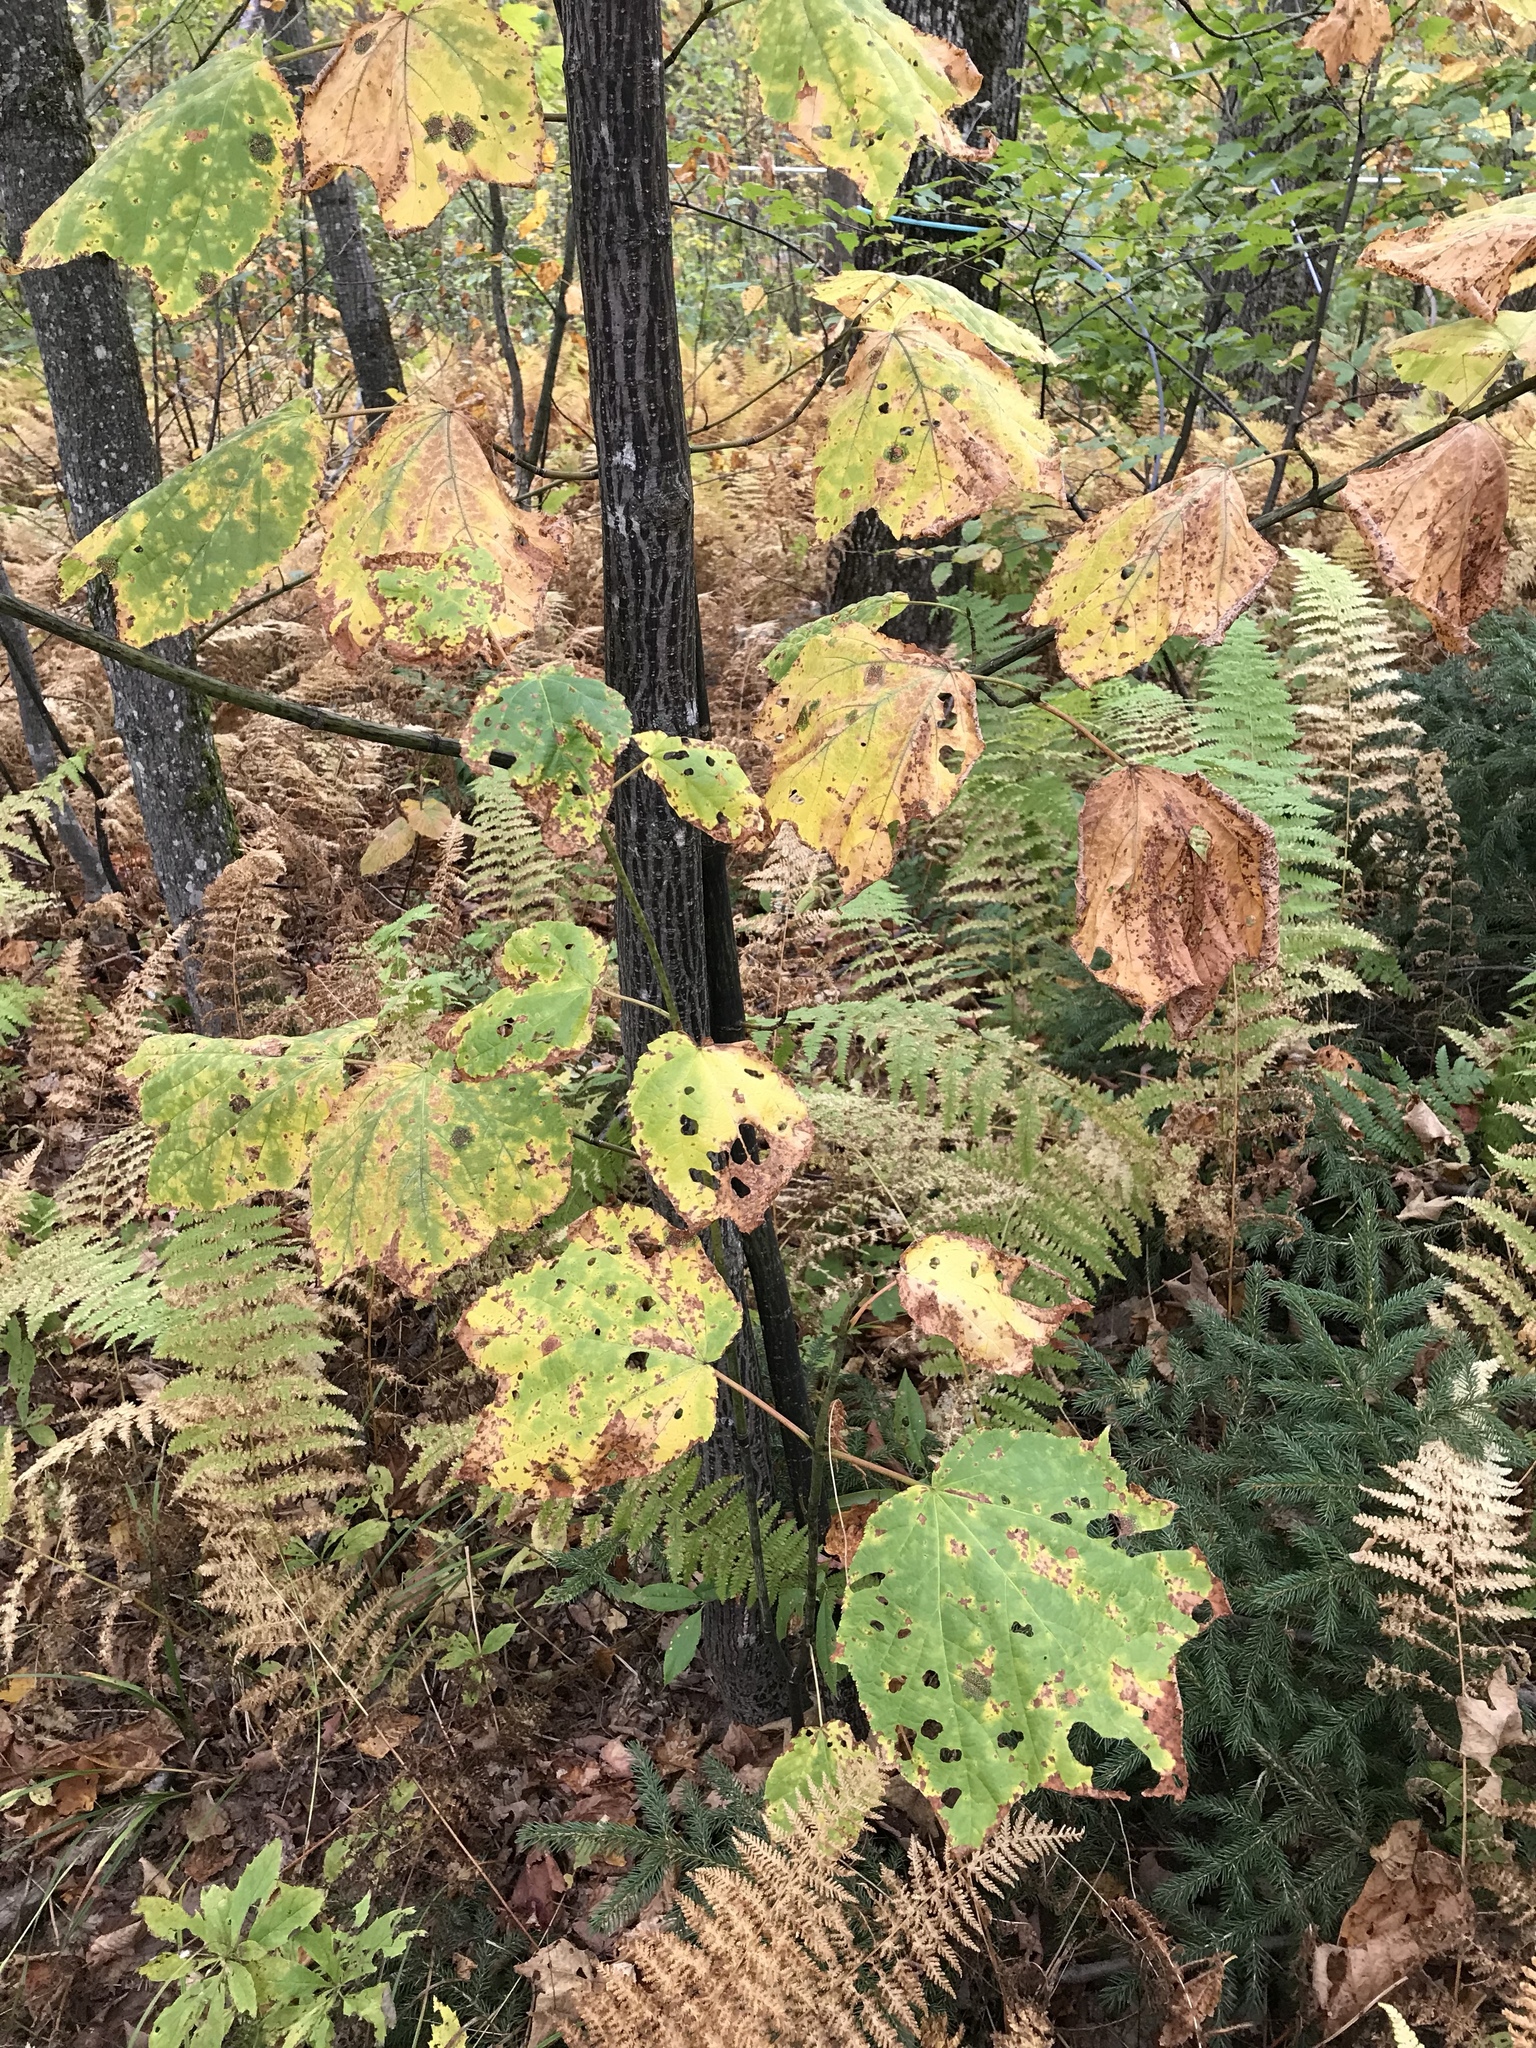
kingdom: Plantae
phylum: Tracheophyta
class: Magnoliopsida
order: Sapindales
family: Sapindaceae
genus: Acer
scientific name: Acer pensylvanicum
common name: Moosewood
